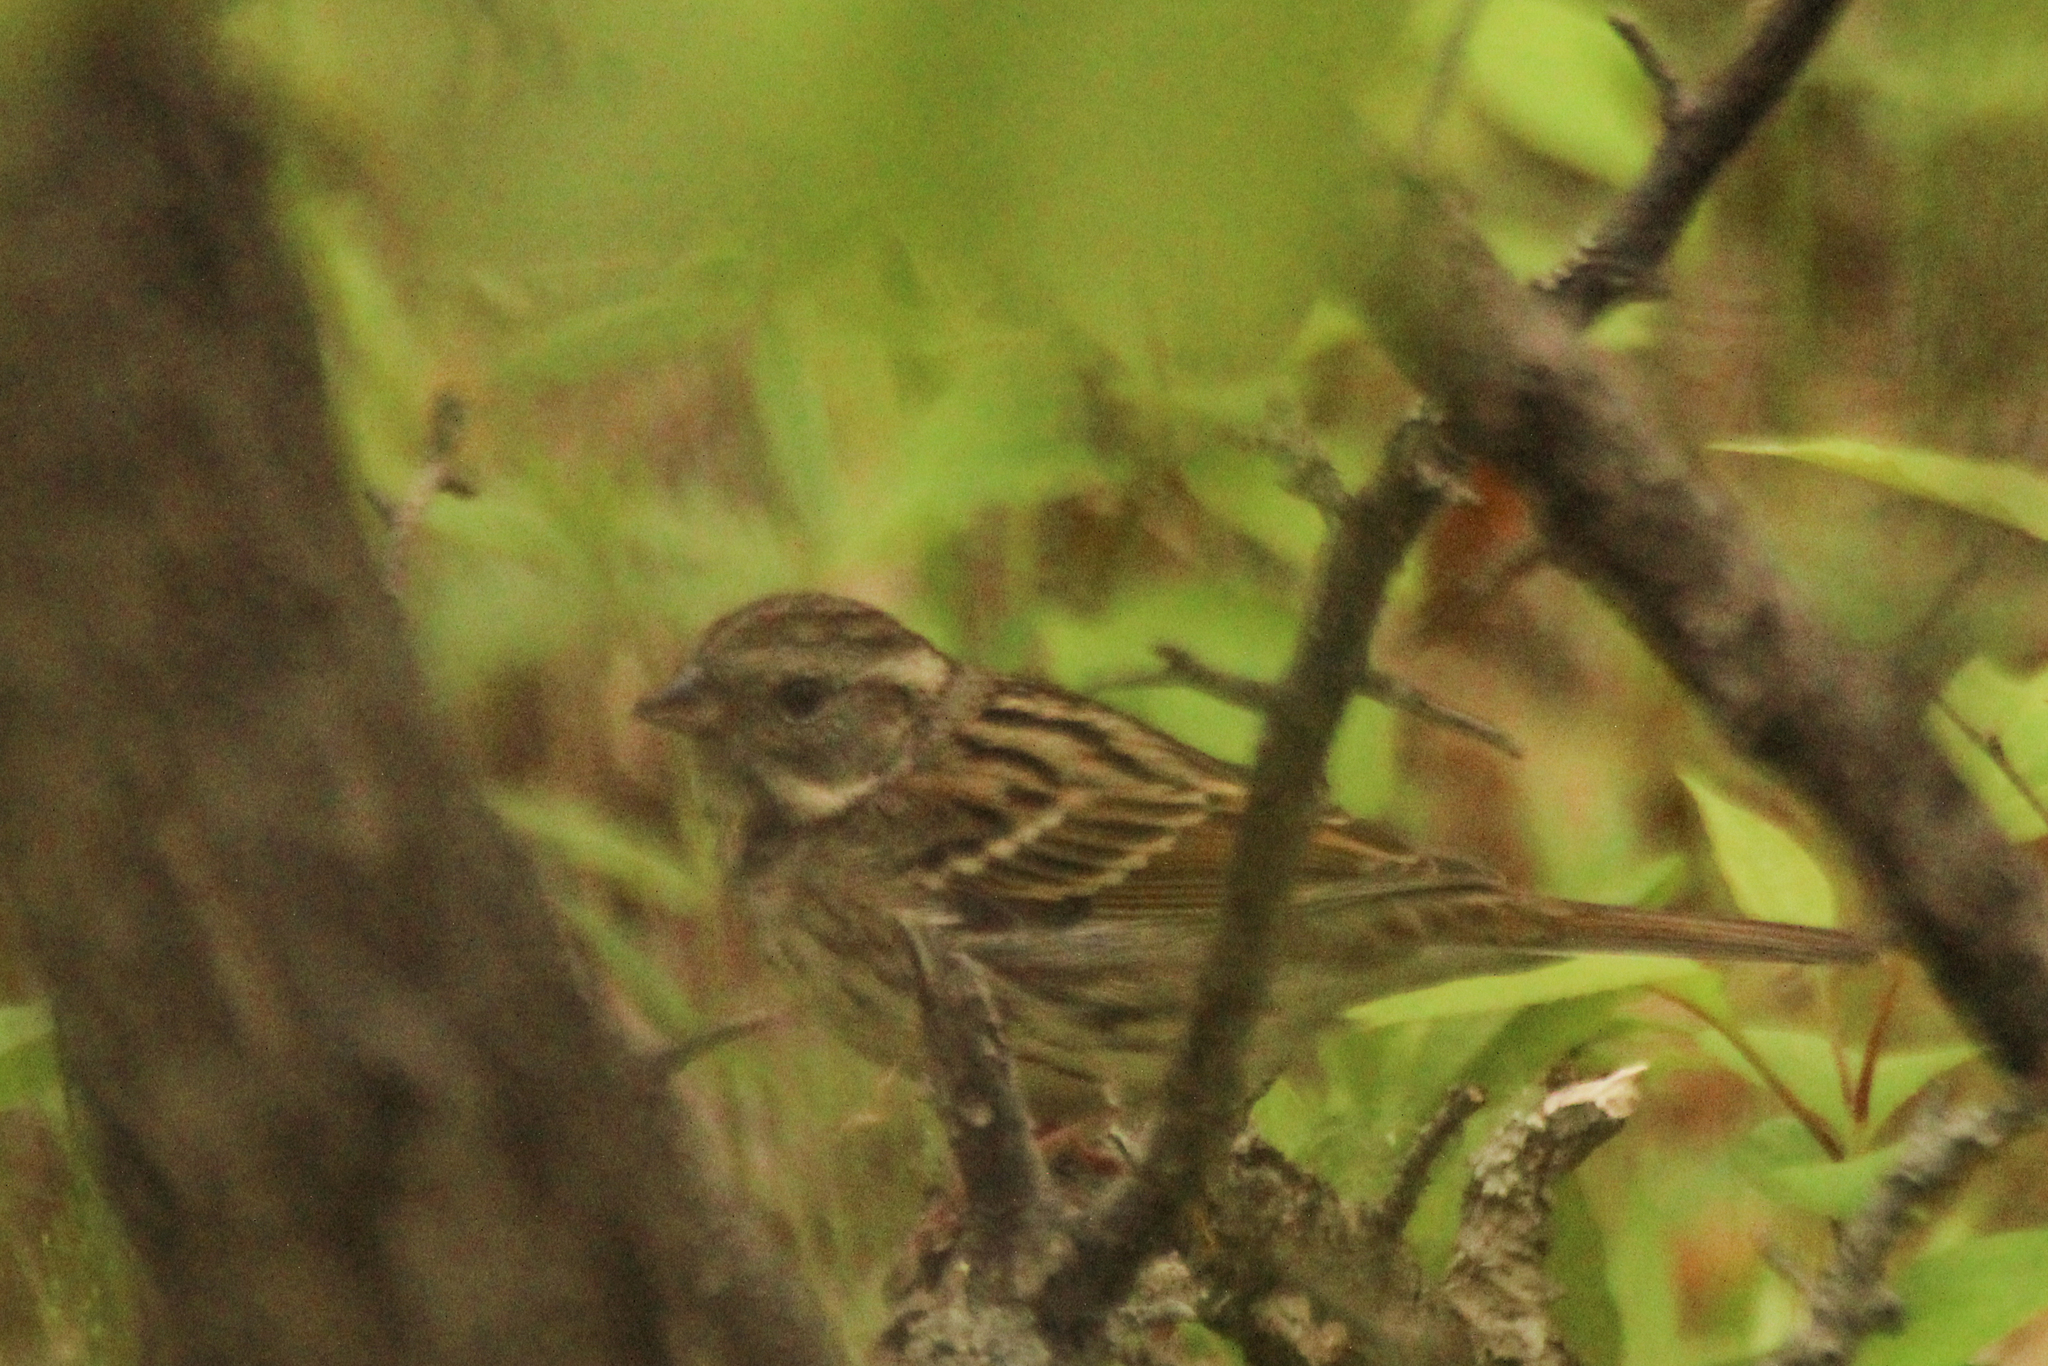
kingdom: Animalia
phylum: Chordata
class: Aves
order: Passeriformes
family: Emberizidae
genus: Emberiza
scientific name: Emberiza spodocephala
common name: Black-faced bunting
